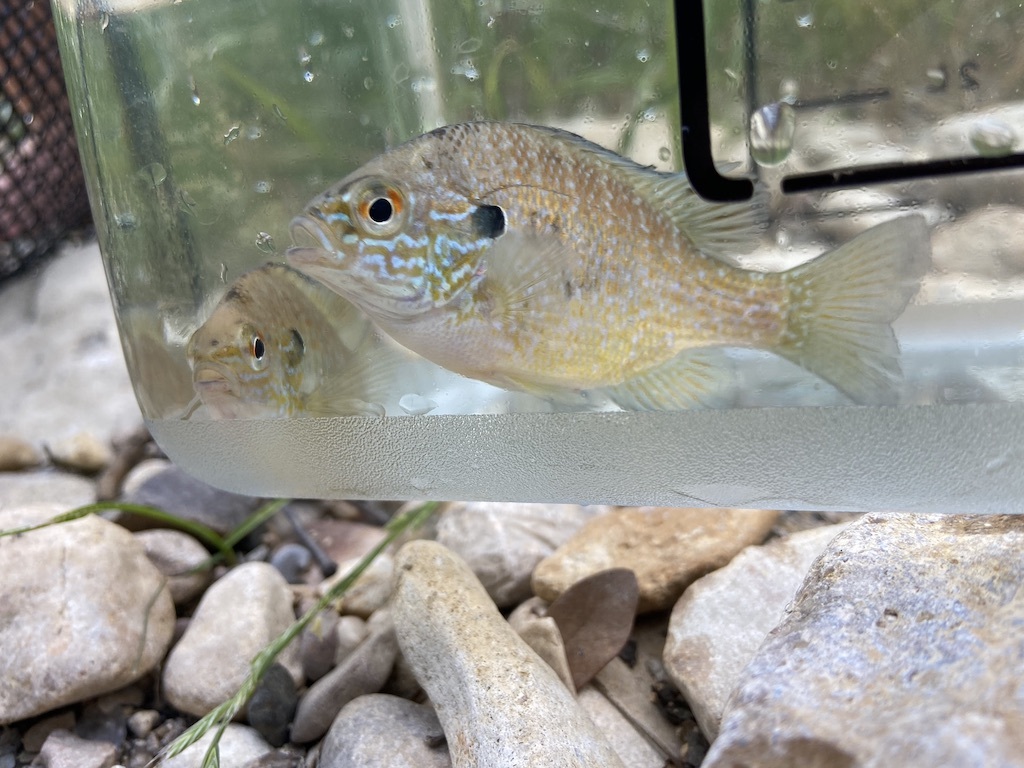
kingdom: Animalia
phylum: Chordata
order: Perciformes
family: Centrarchidae
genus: Lepomis
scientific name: Lepomis megalotis
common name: Longear sunfish
